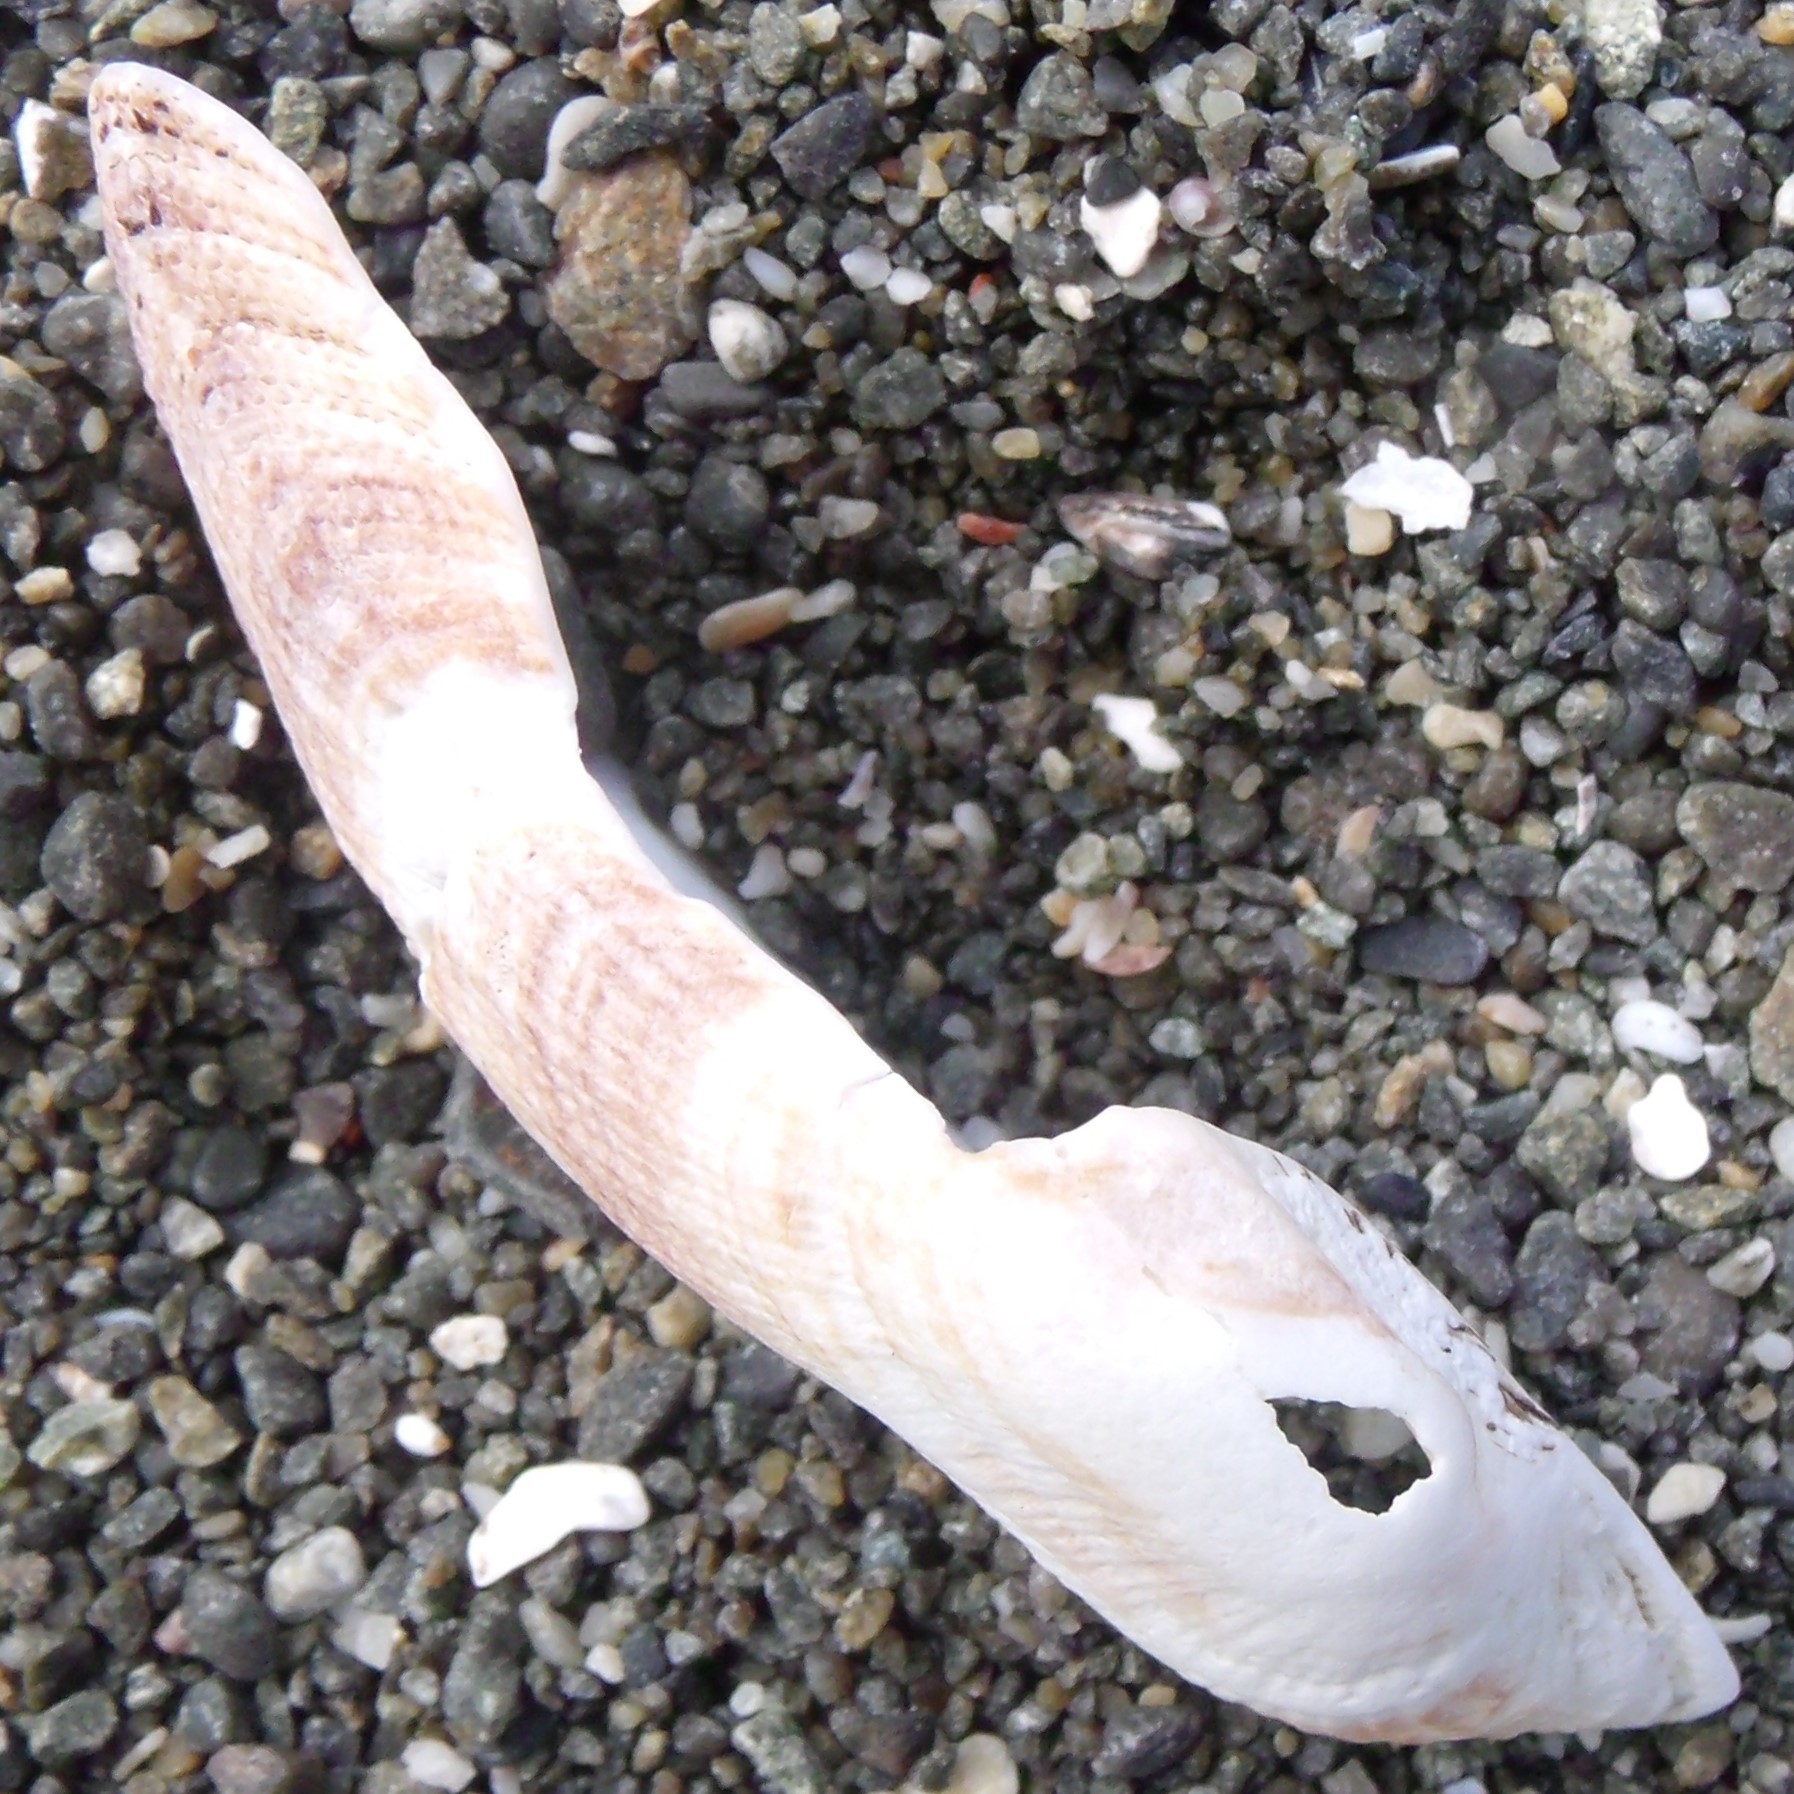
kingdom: Animalia
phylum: Mollusca
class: Bivalvia
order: Arcida
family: Arcidae
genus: Barbatia
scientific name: Barbatia novaezealandiae
